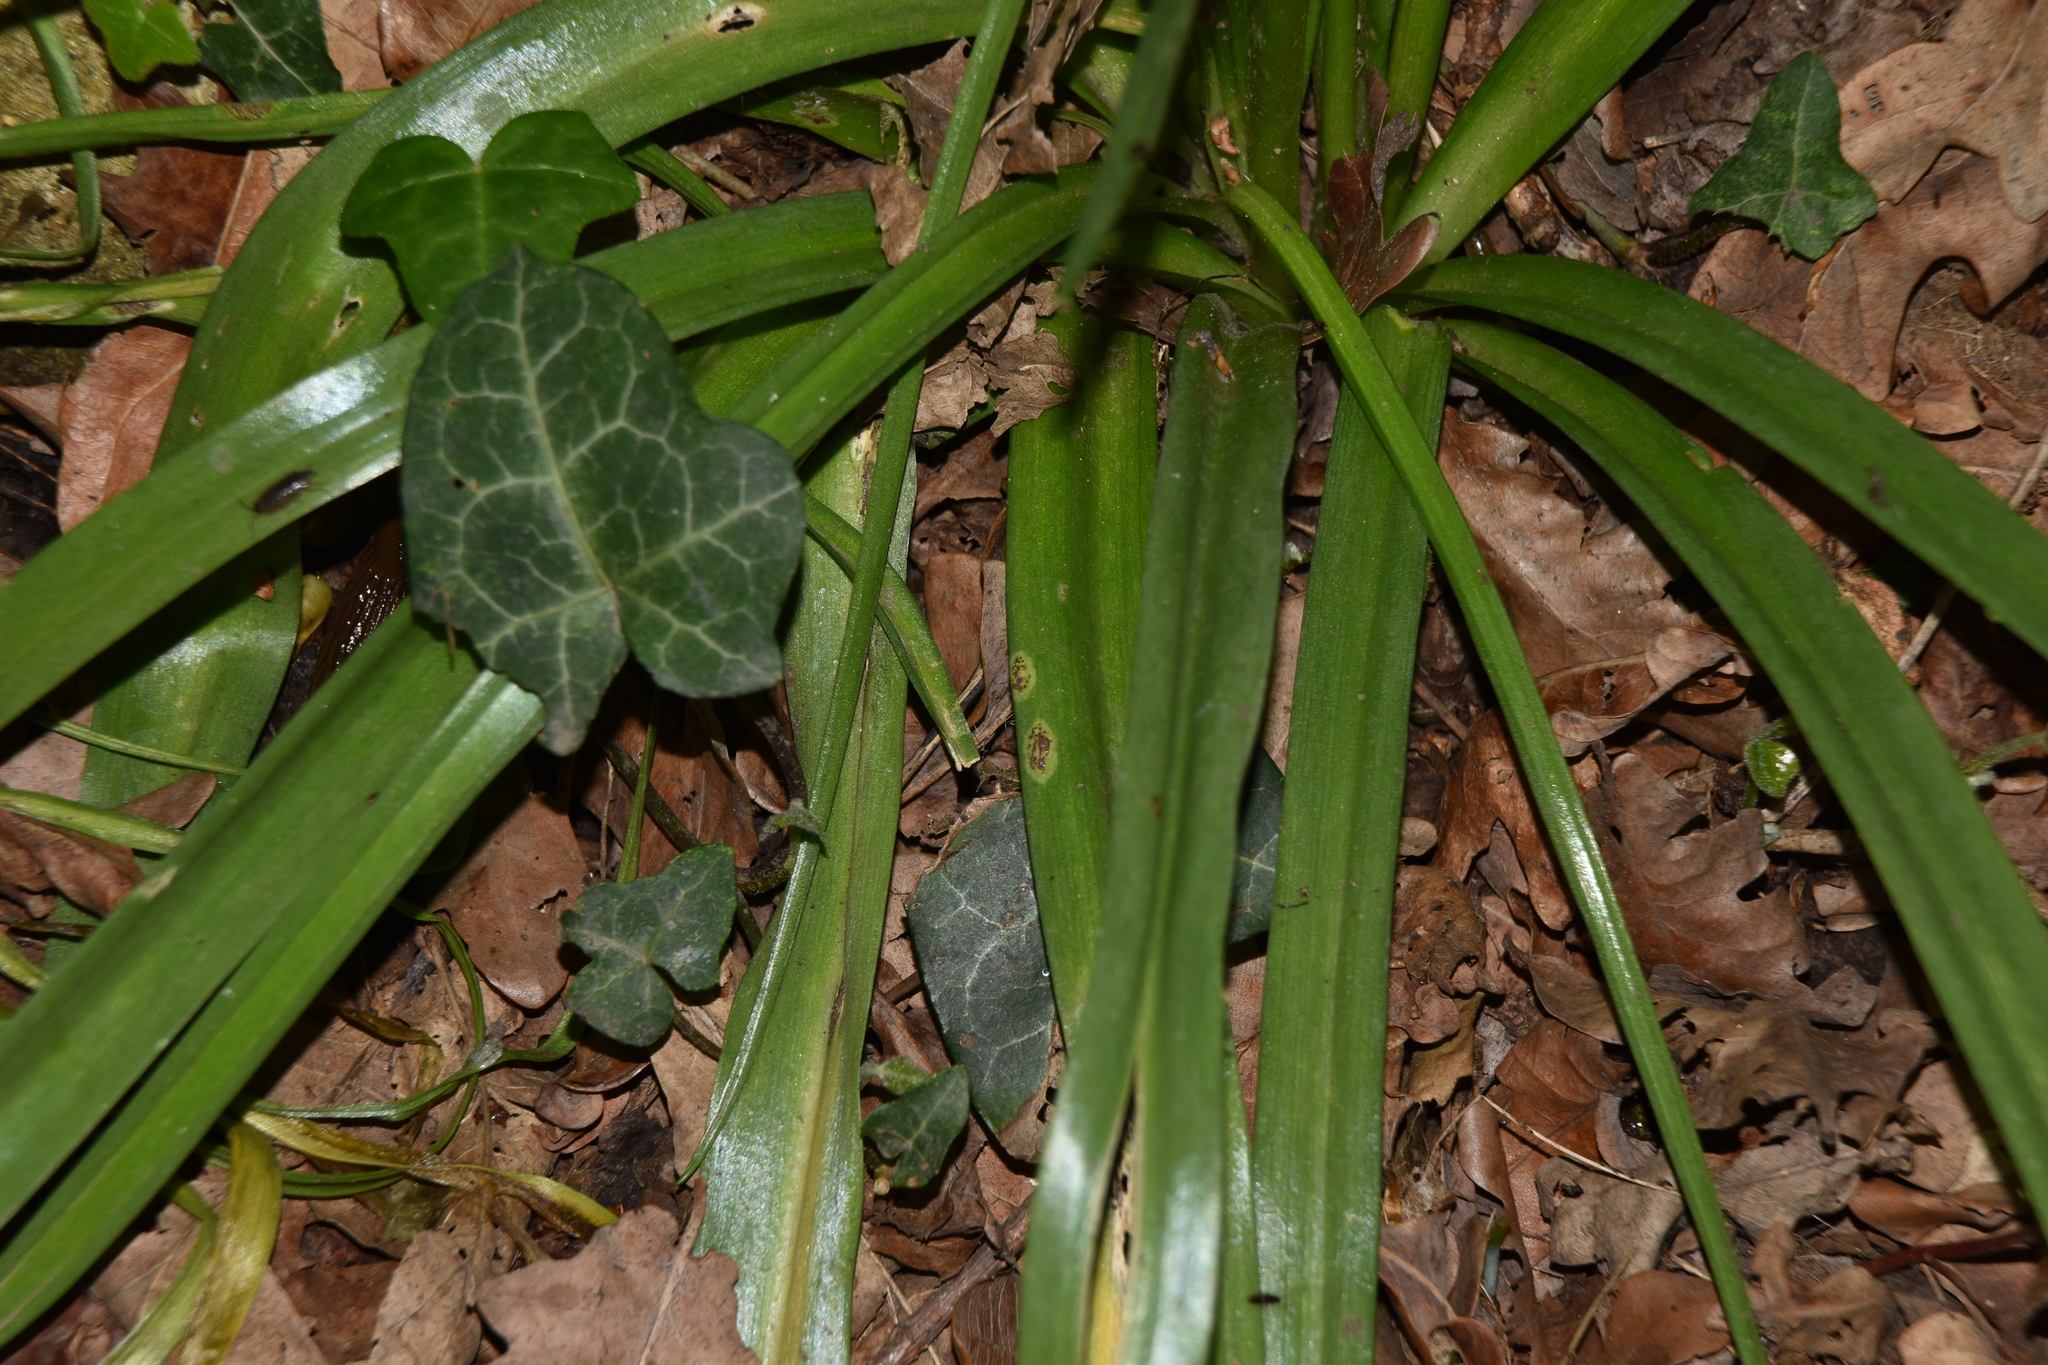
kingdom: Fungi
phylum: Basidiomycota
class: Pucciniomycetes
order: Pucciniales
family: Pucciniaceae
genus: Uromyces
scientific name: Uromyces hyacinthi
